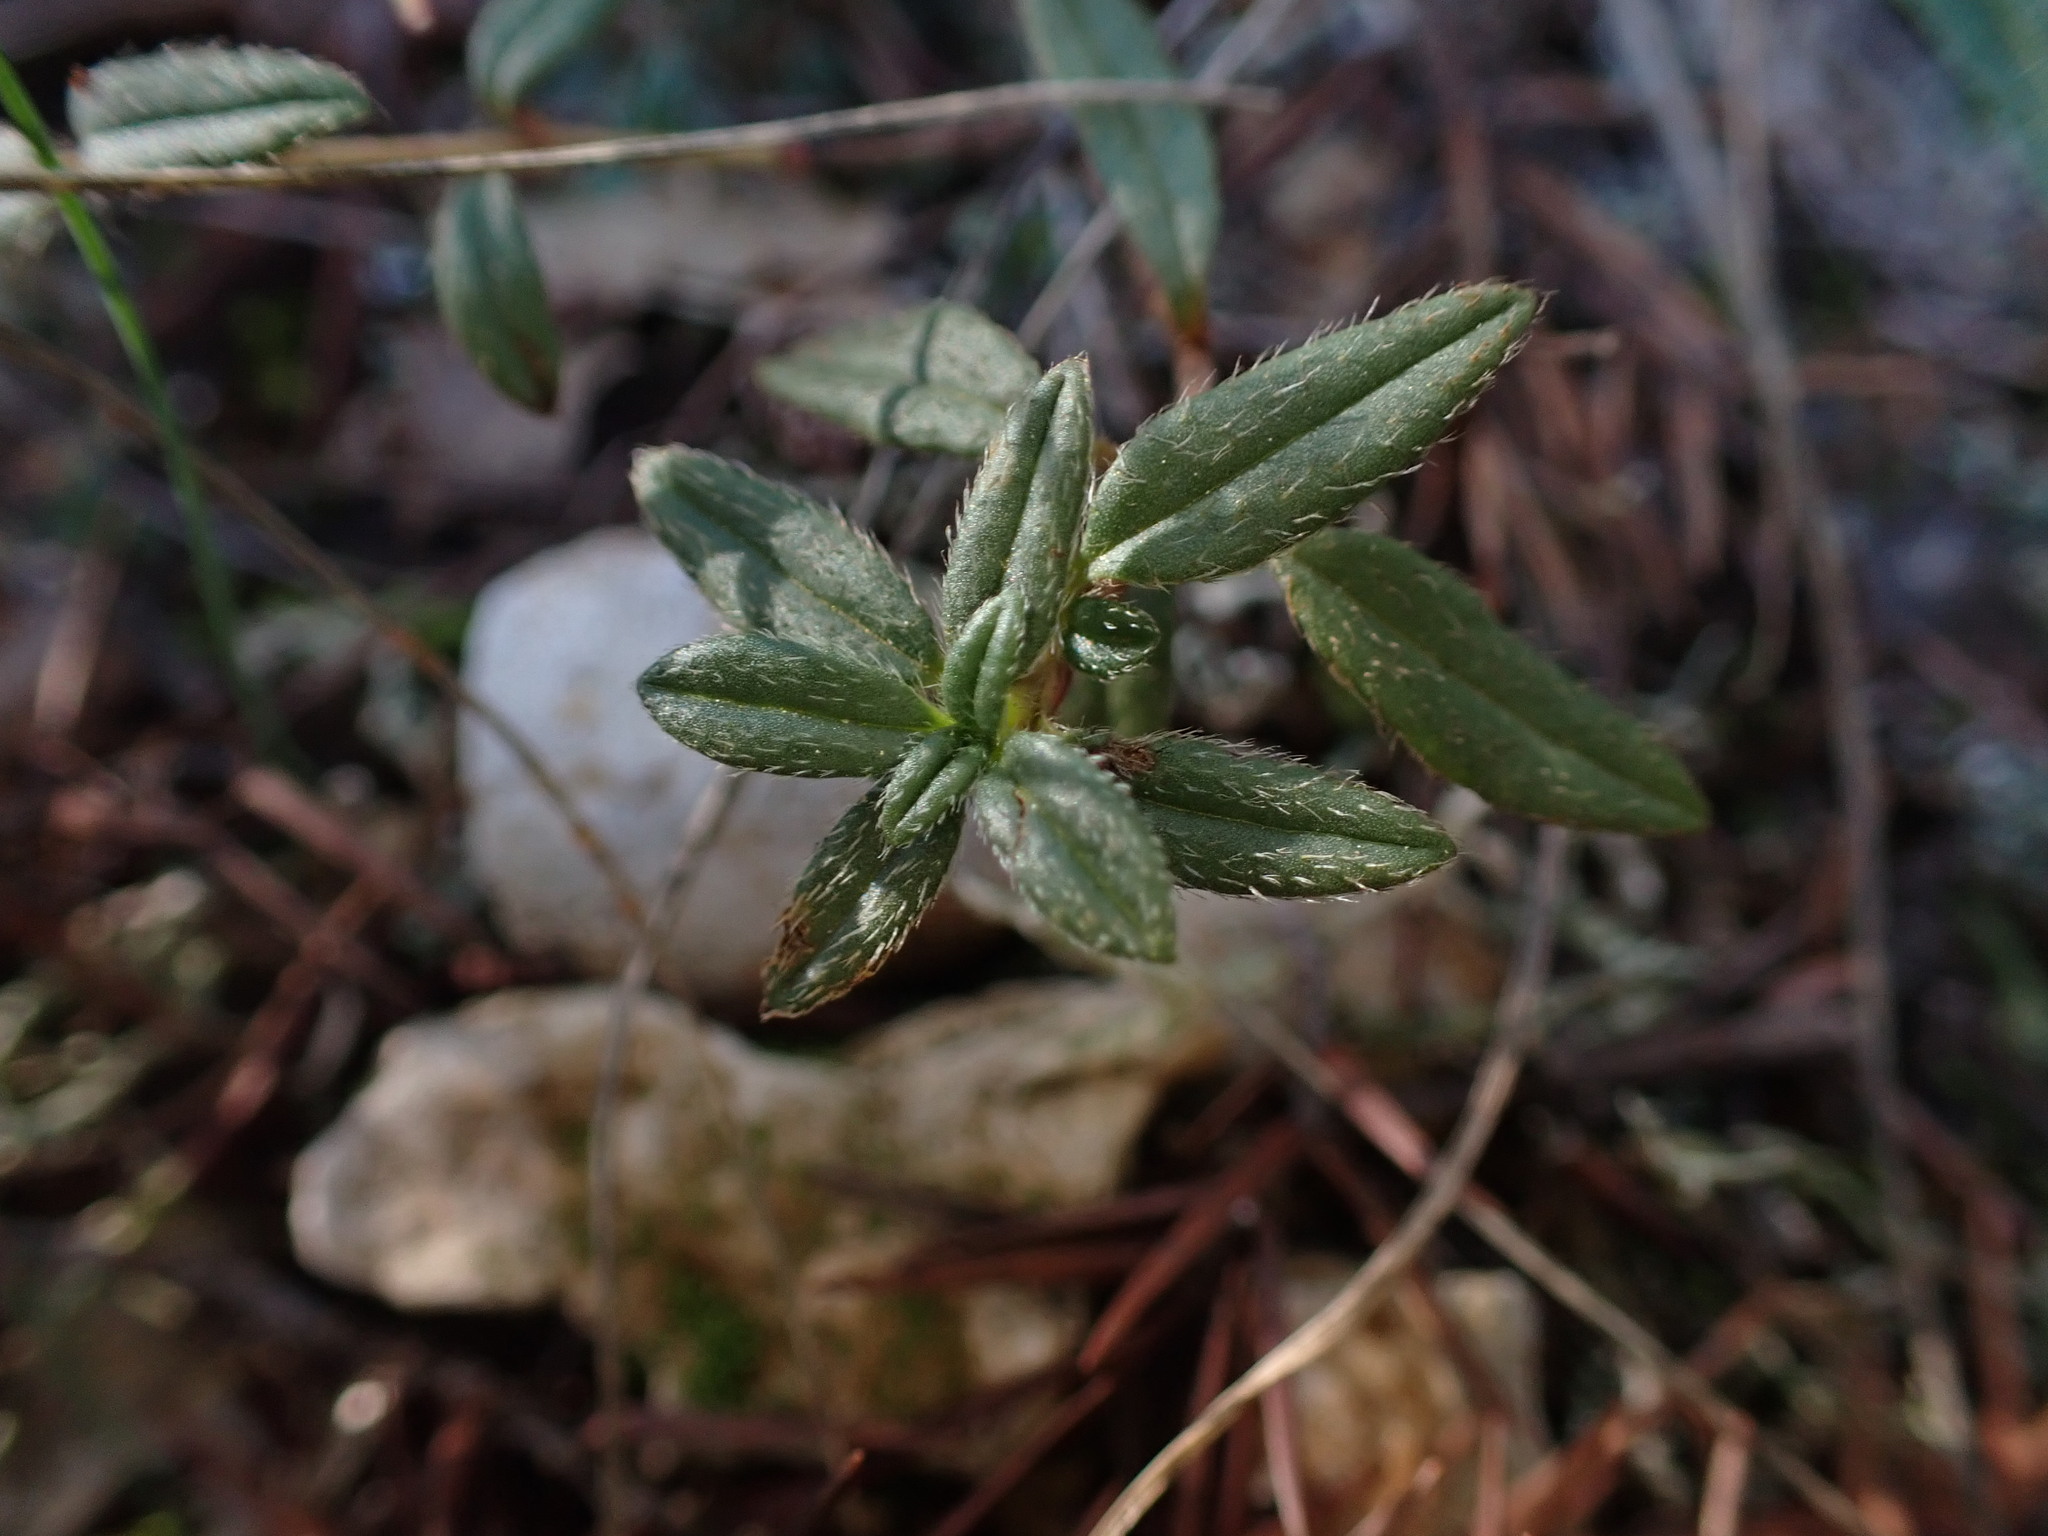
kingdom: Plantae
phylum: Tracheophyta
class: Magnoliopsida
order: Malvales
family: Cistaceae
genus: Helianthemum
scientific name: Helianthemum oelandicum
